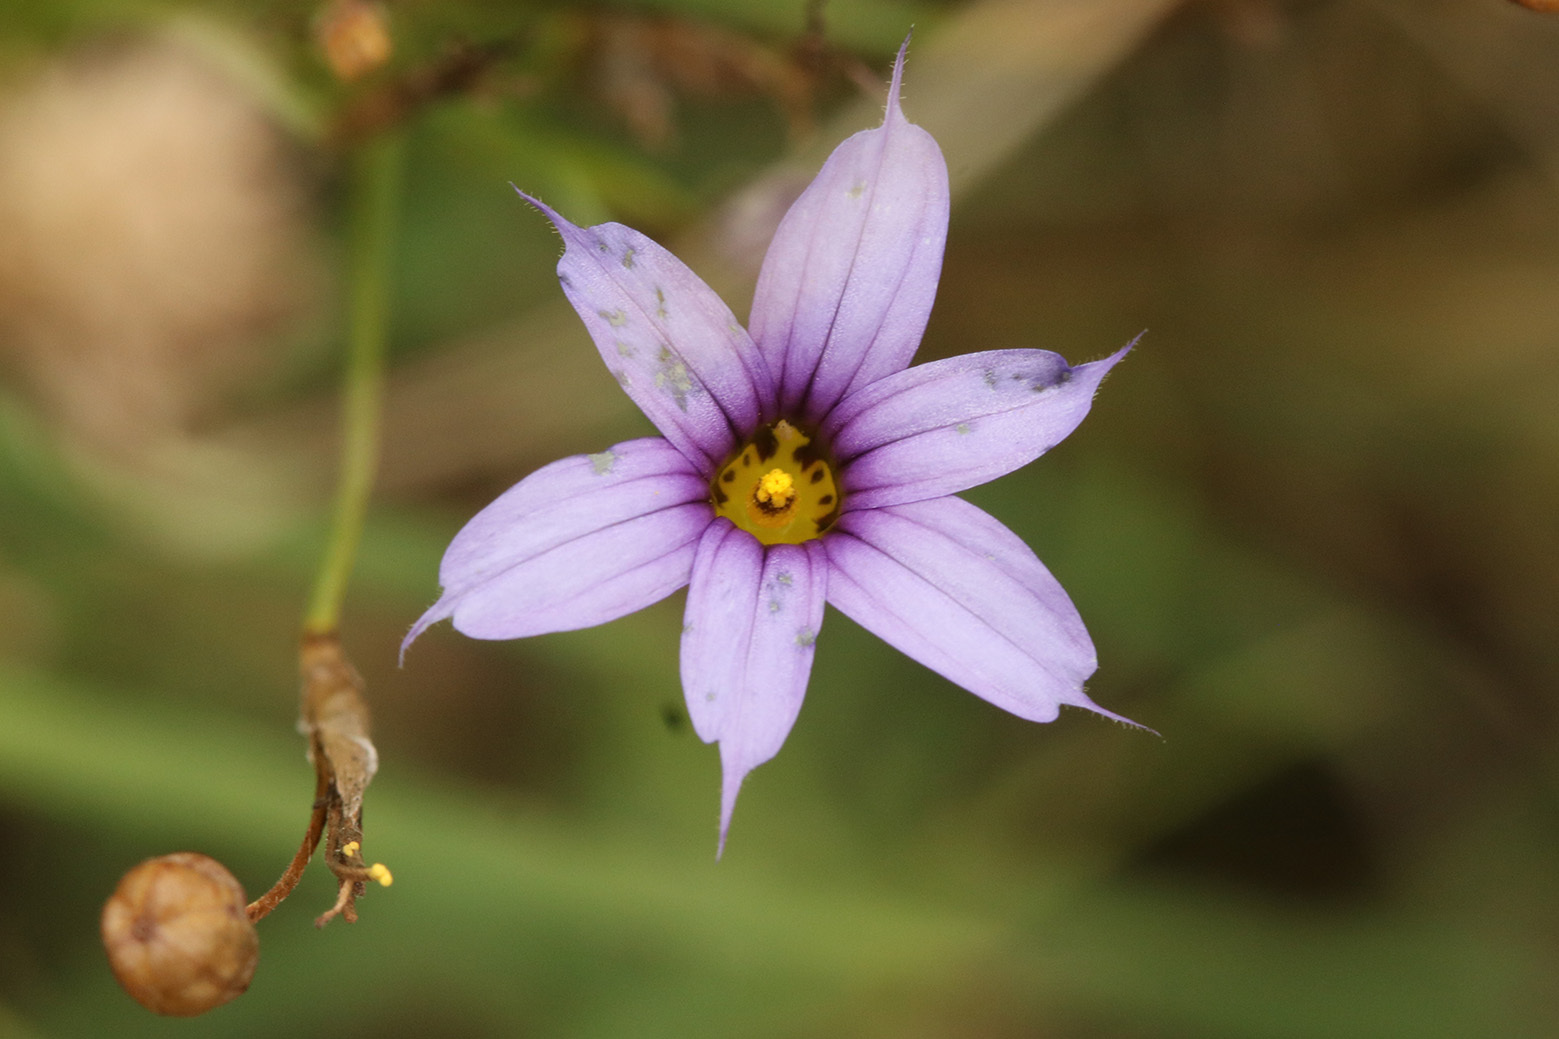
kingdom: Plantae
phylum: Tracheophyta
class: Liliopsida
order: Asparagales
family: Iridaceae
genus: Sisyrinchium
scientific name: Sisyrinchium platense
